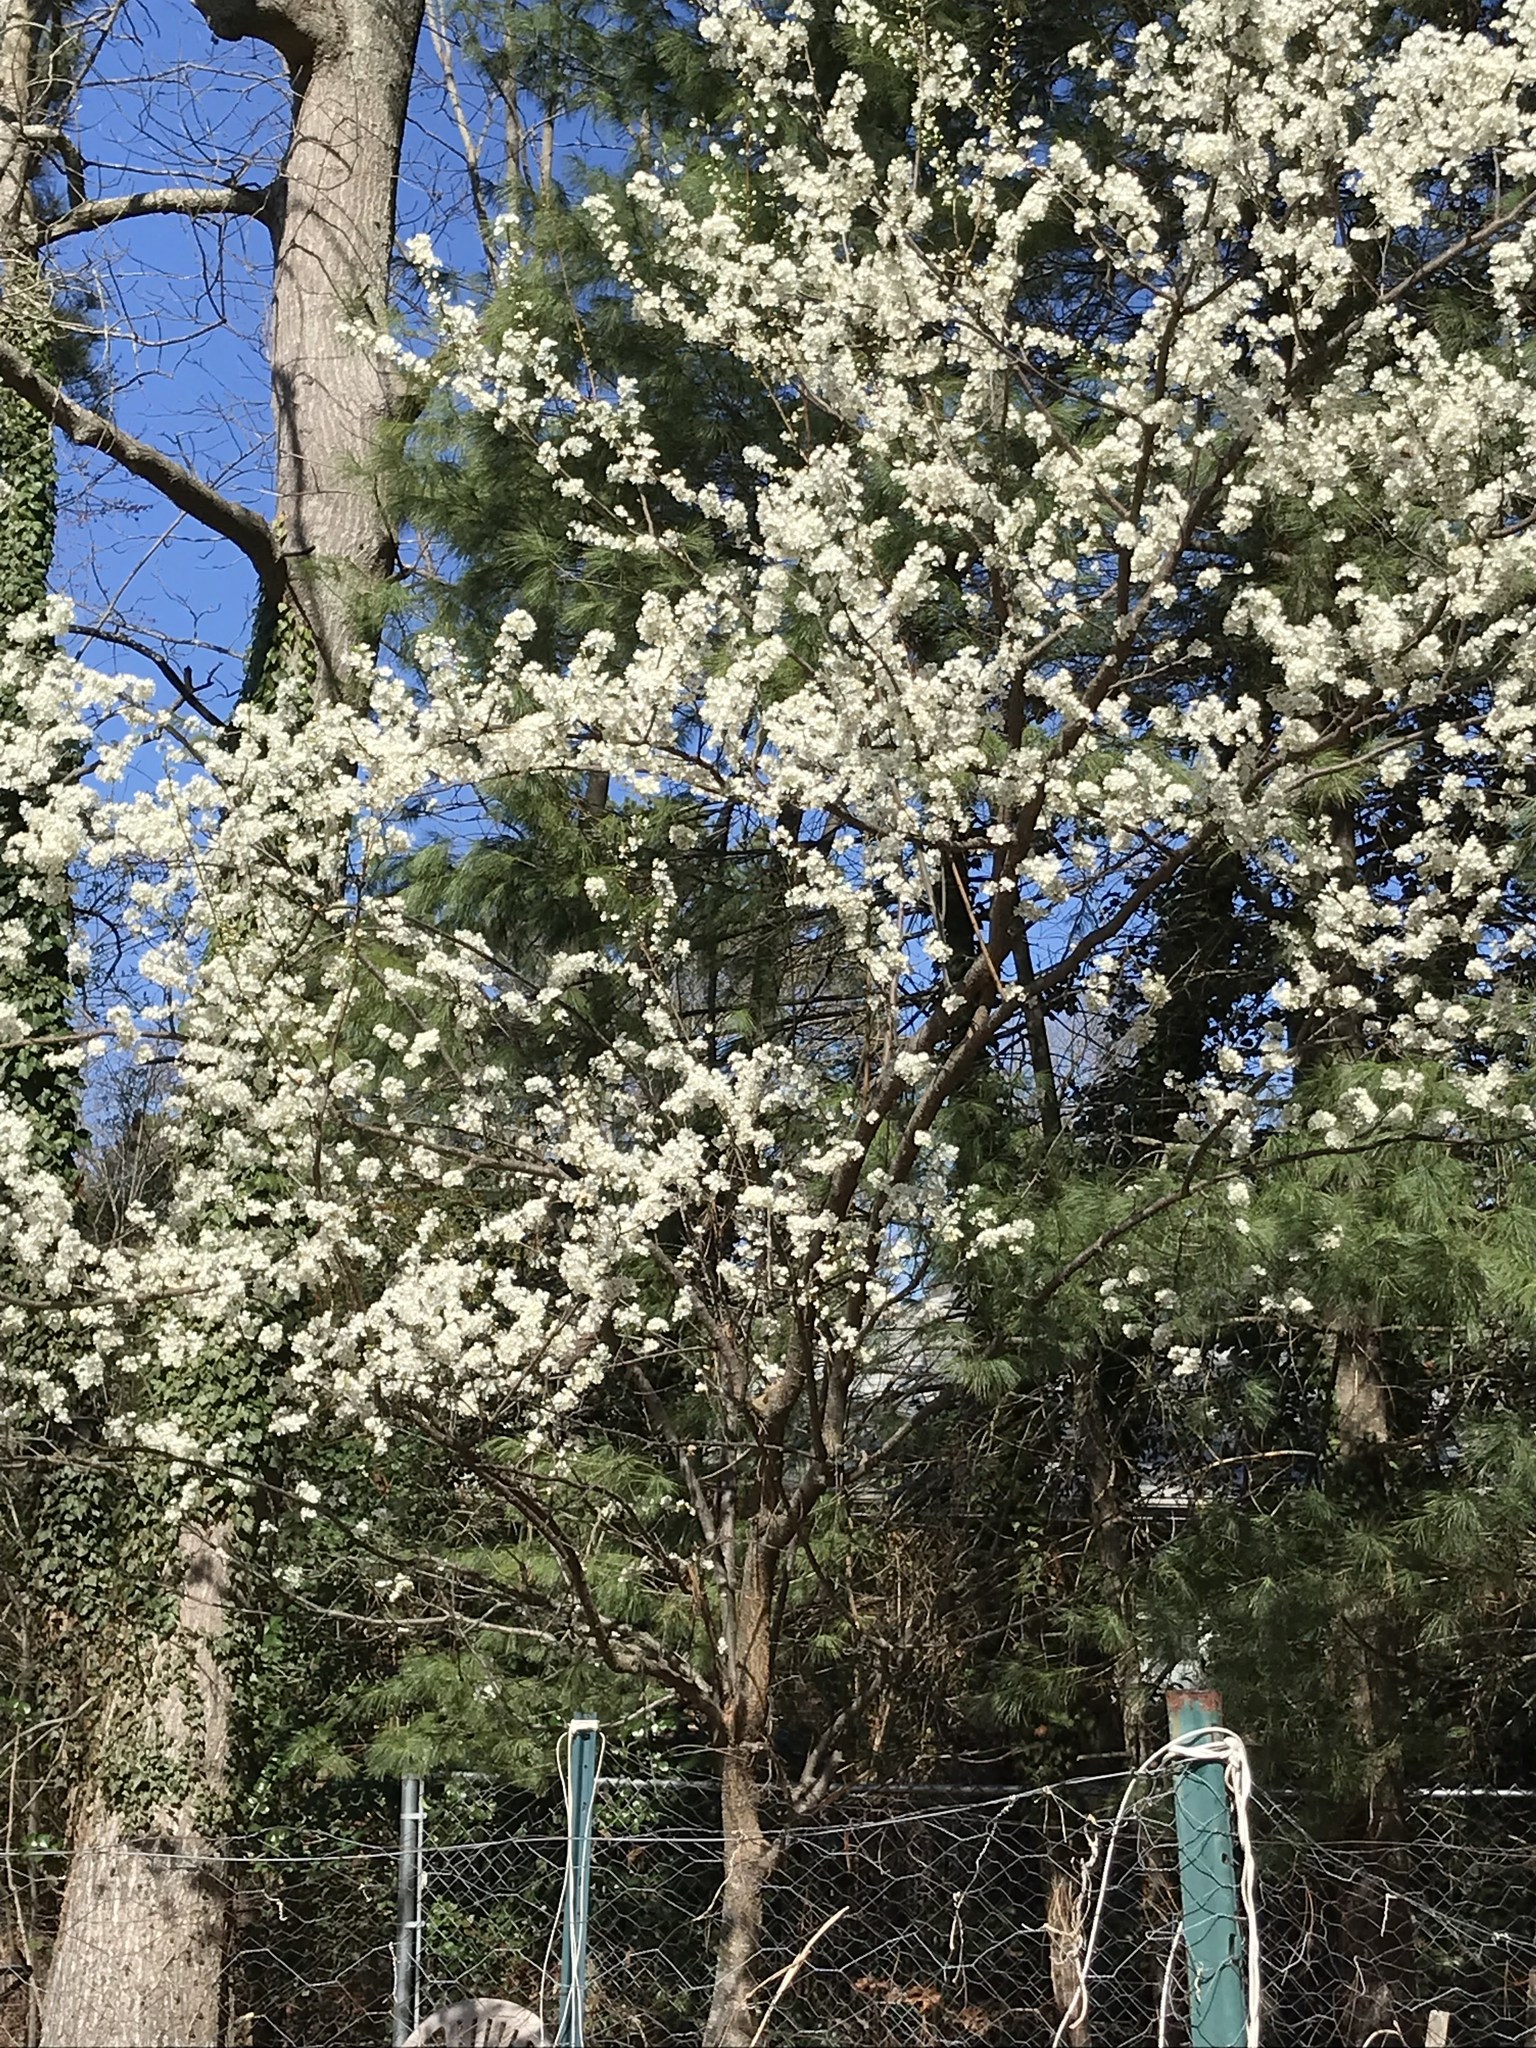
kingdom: Plantae
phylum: Tracheophyta
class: Magnoliopsida
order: Rosales
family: Rosaceae
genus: Pyrus
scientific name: Pyrus calleryana
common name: Callery pear
